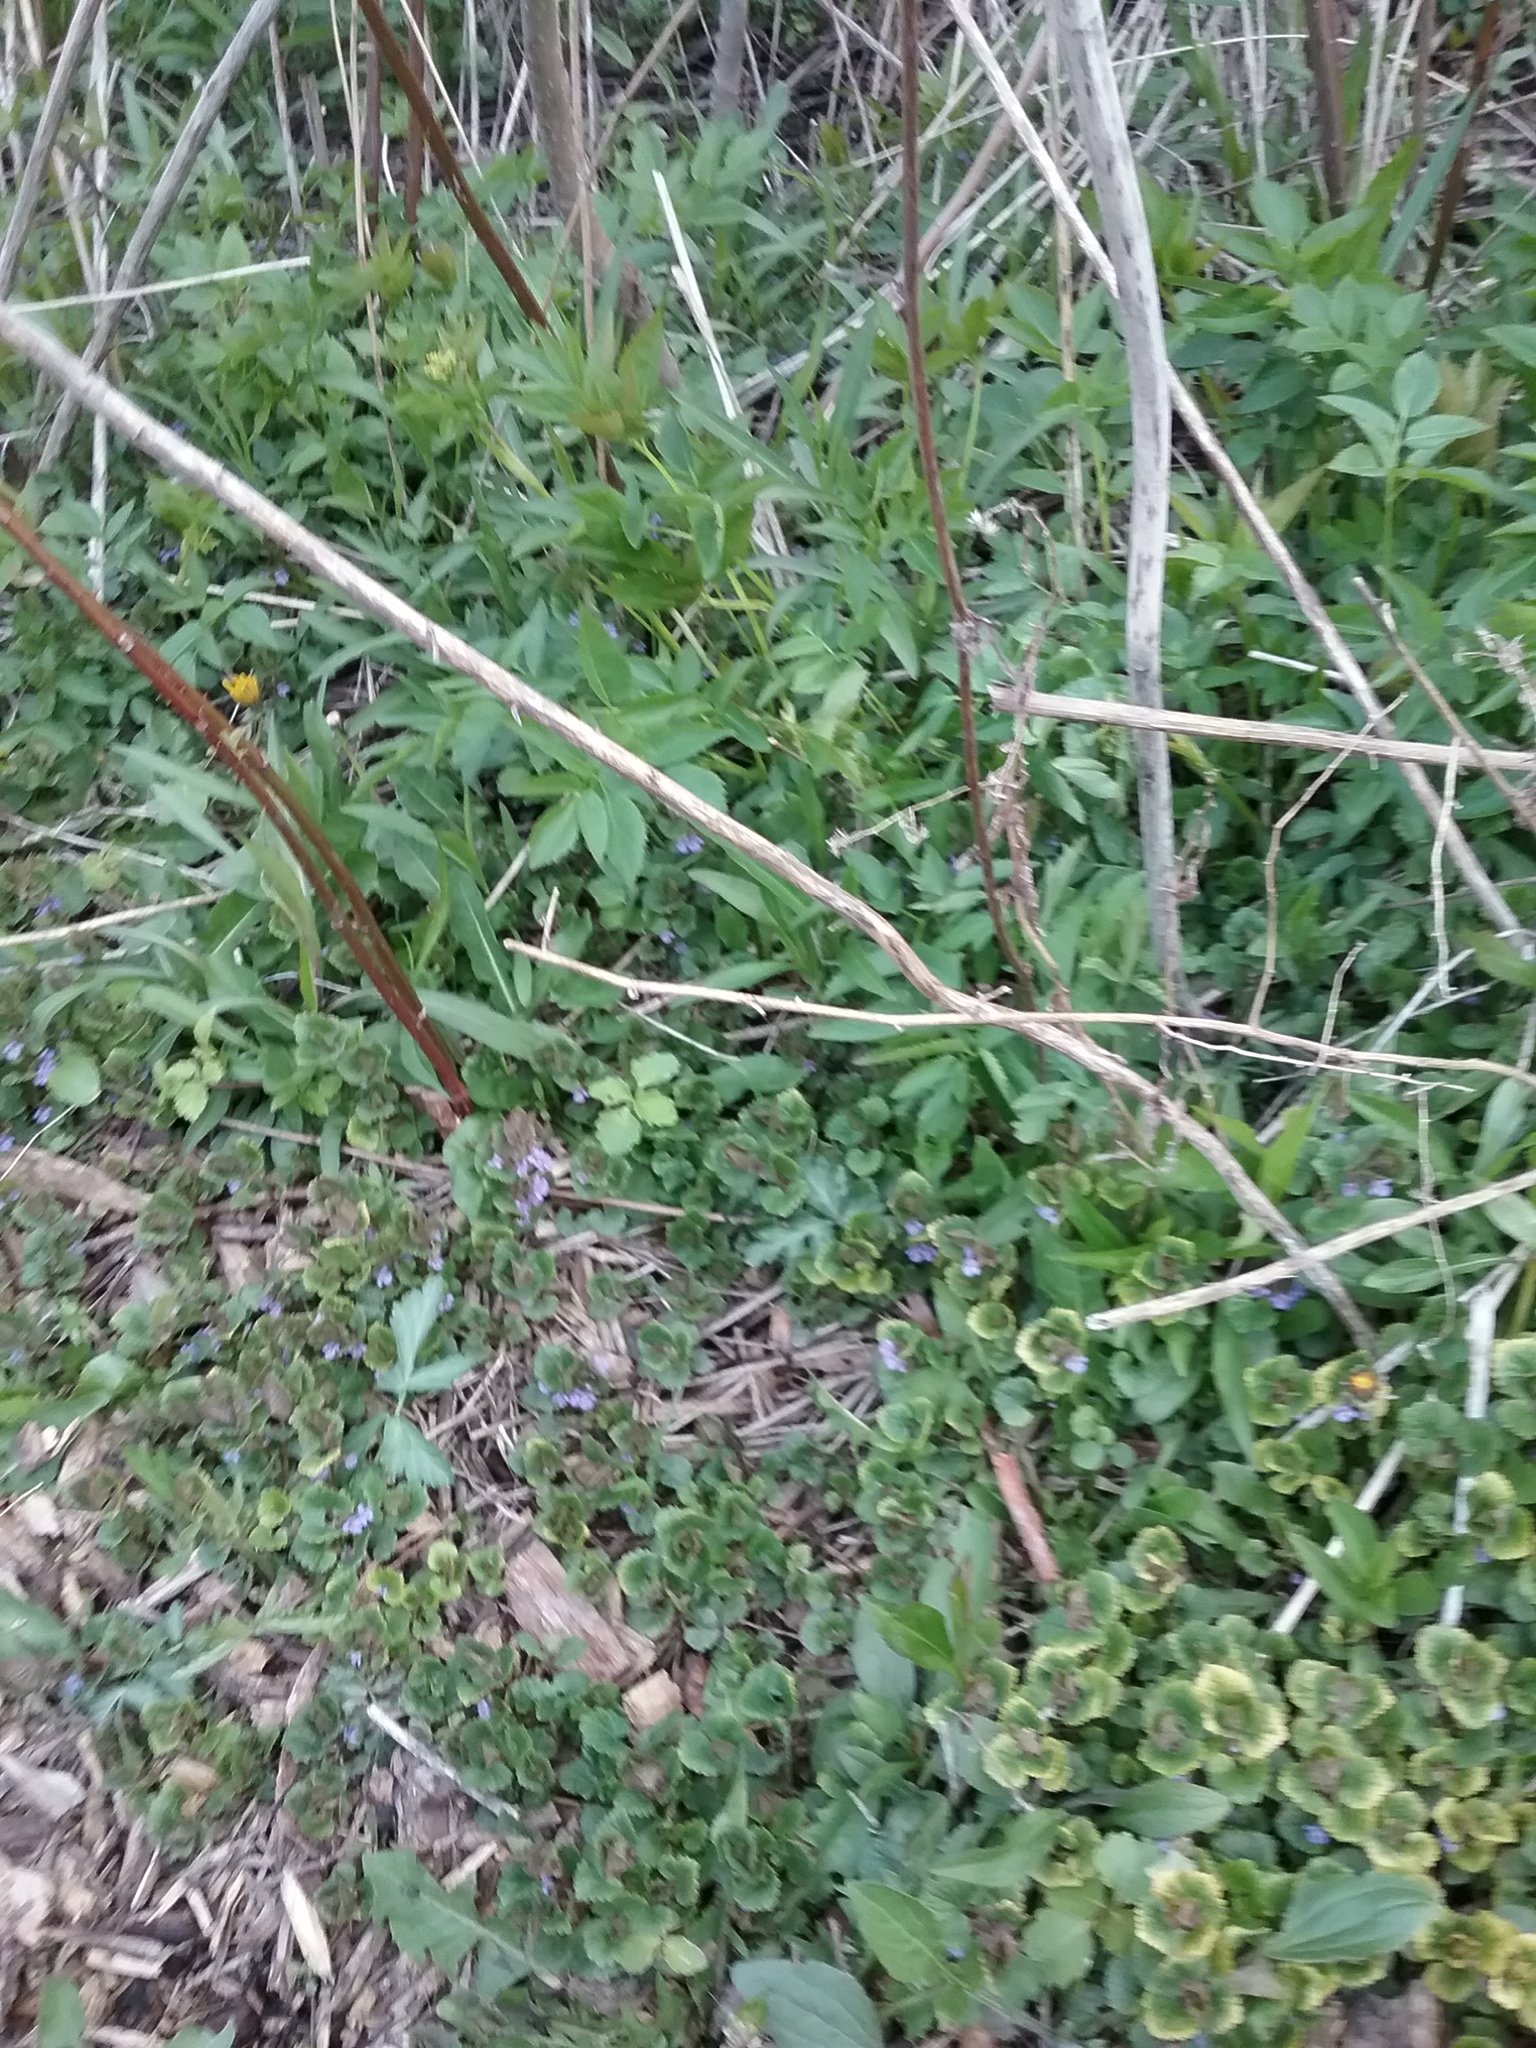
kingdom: Plantae
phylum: Tracheophyta
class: Magnoliopsida
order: Lamiales
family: Lamiaceae
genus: Glechoma
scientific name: Glechoma hederacea
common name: Ground ivy
